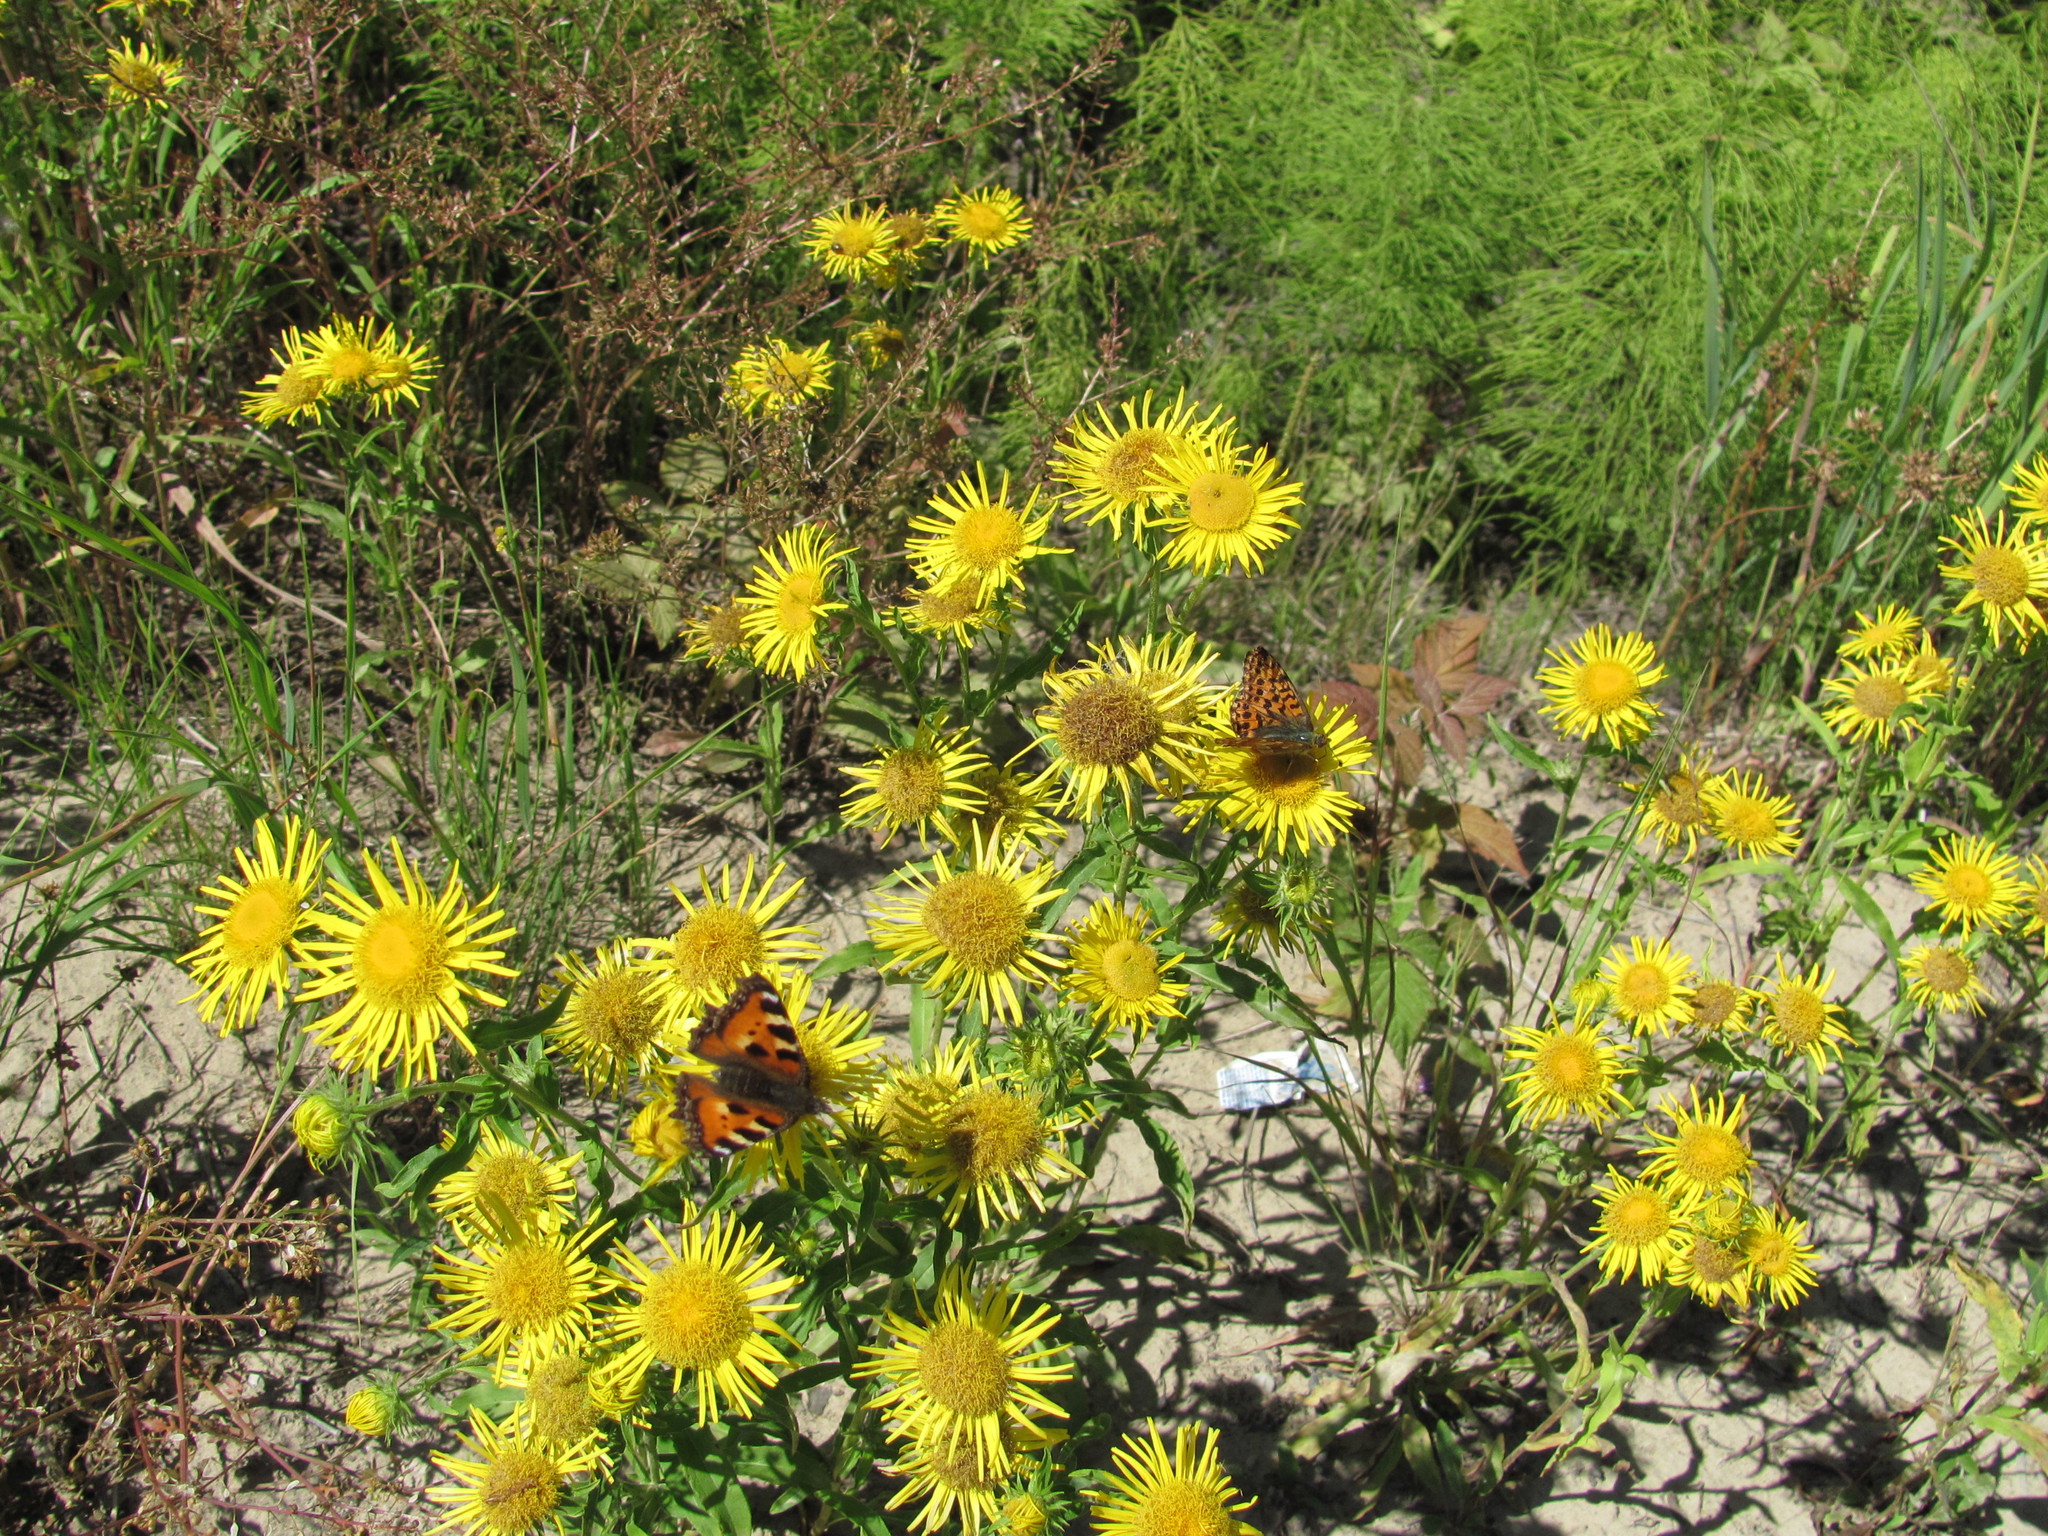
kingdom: Plantae
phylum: Tracheophyta
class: Magnoliopsida
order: Asterales
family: Asteraceae
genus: Pentanema
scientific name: Pentanema britannicum
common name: British elecampane
